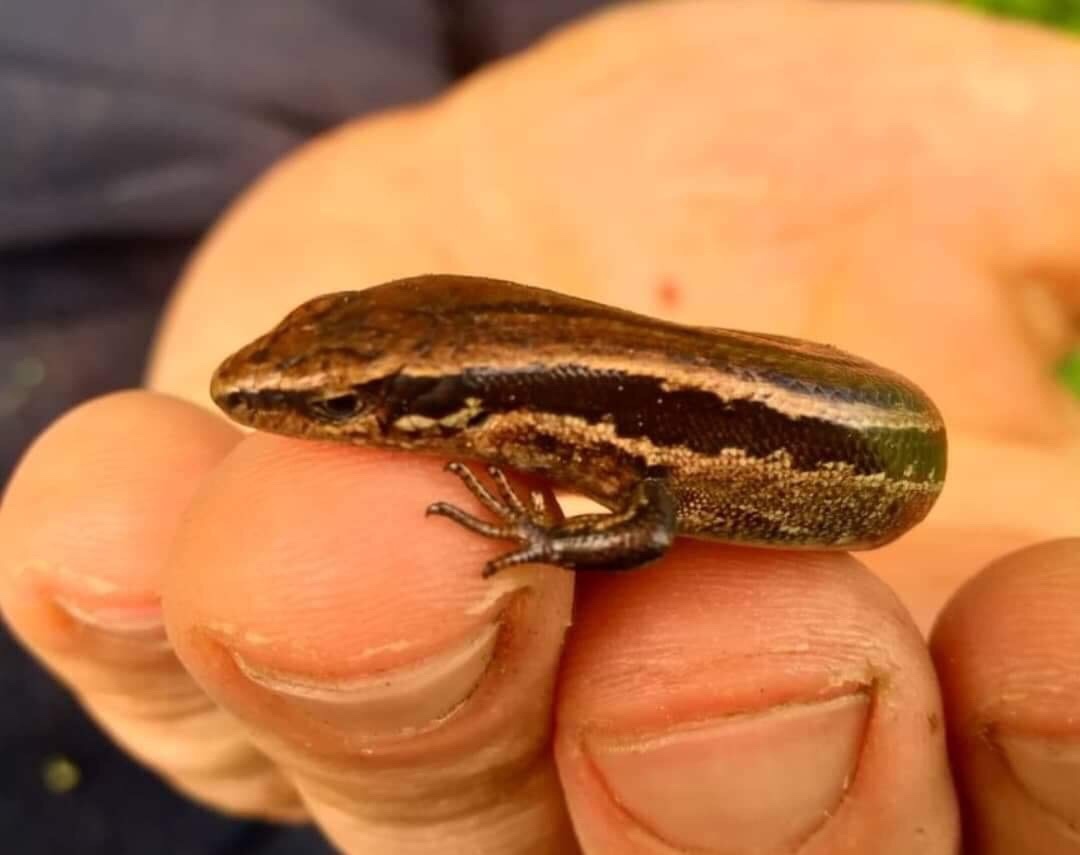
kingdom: Animalia
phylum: Chordata
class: Squamata
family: Scincidae
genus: Oligosoma
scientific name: Oligosoma polychroma
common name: Common new zealand skink
